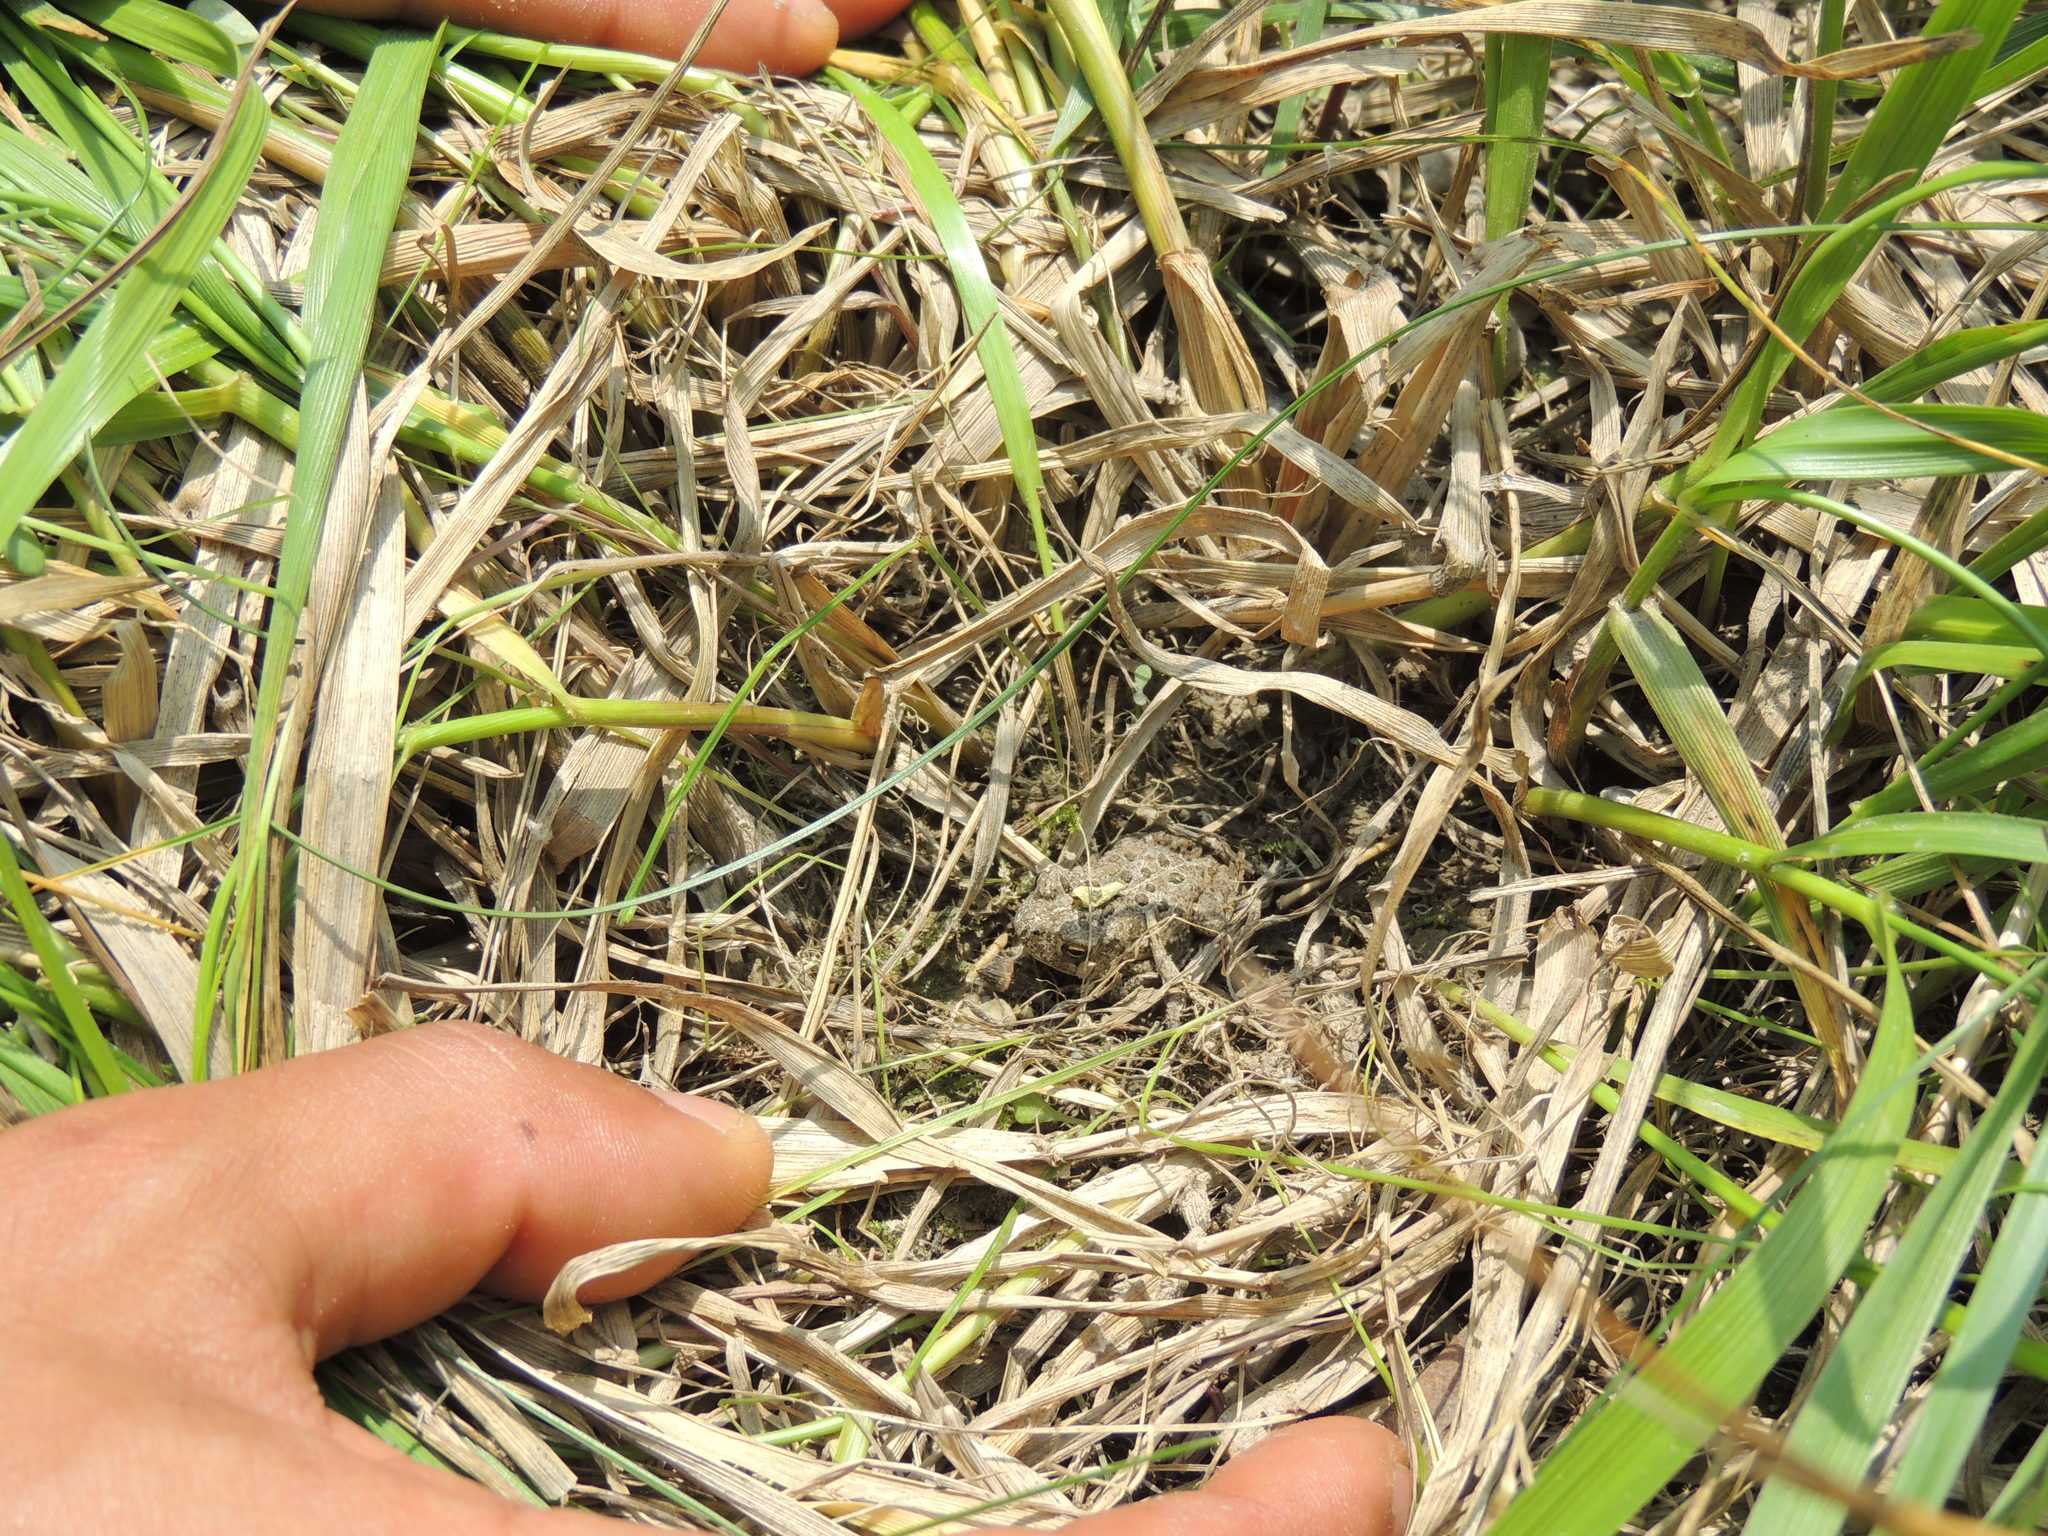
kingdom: Animalia
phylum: Chordata
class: Amphibia
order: Anura
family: Bufonidae
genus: Anaxyrus
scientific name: Anaxyrus americanus
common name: American toad
